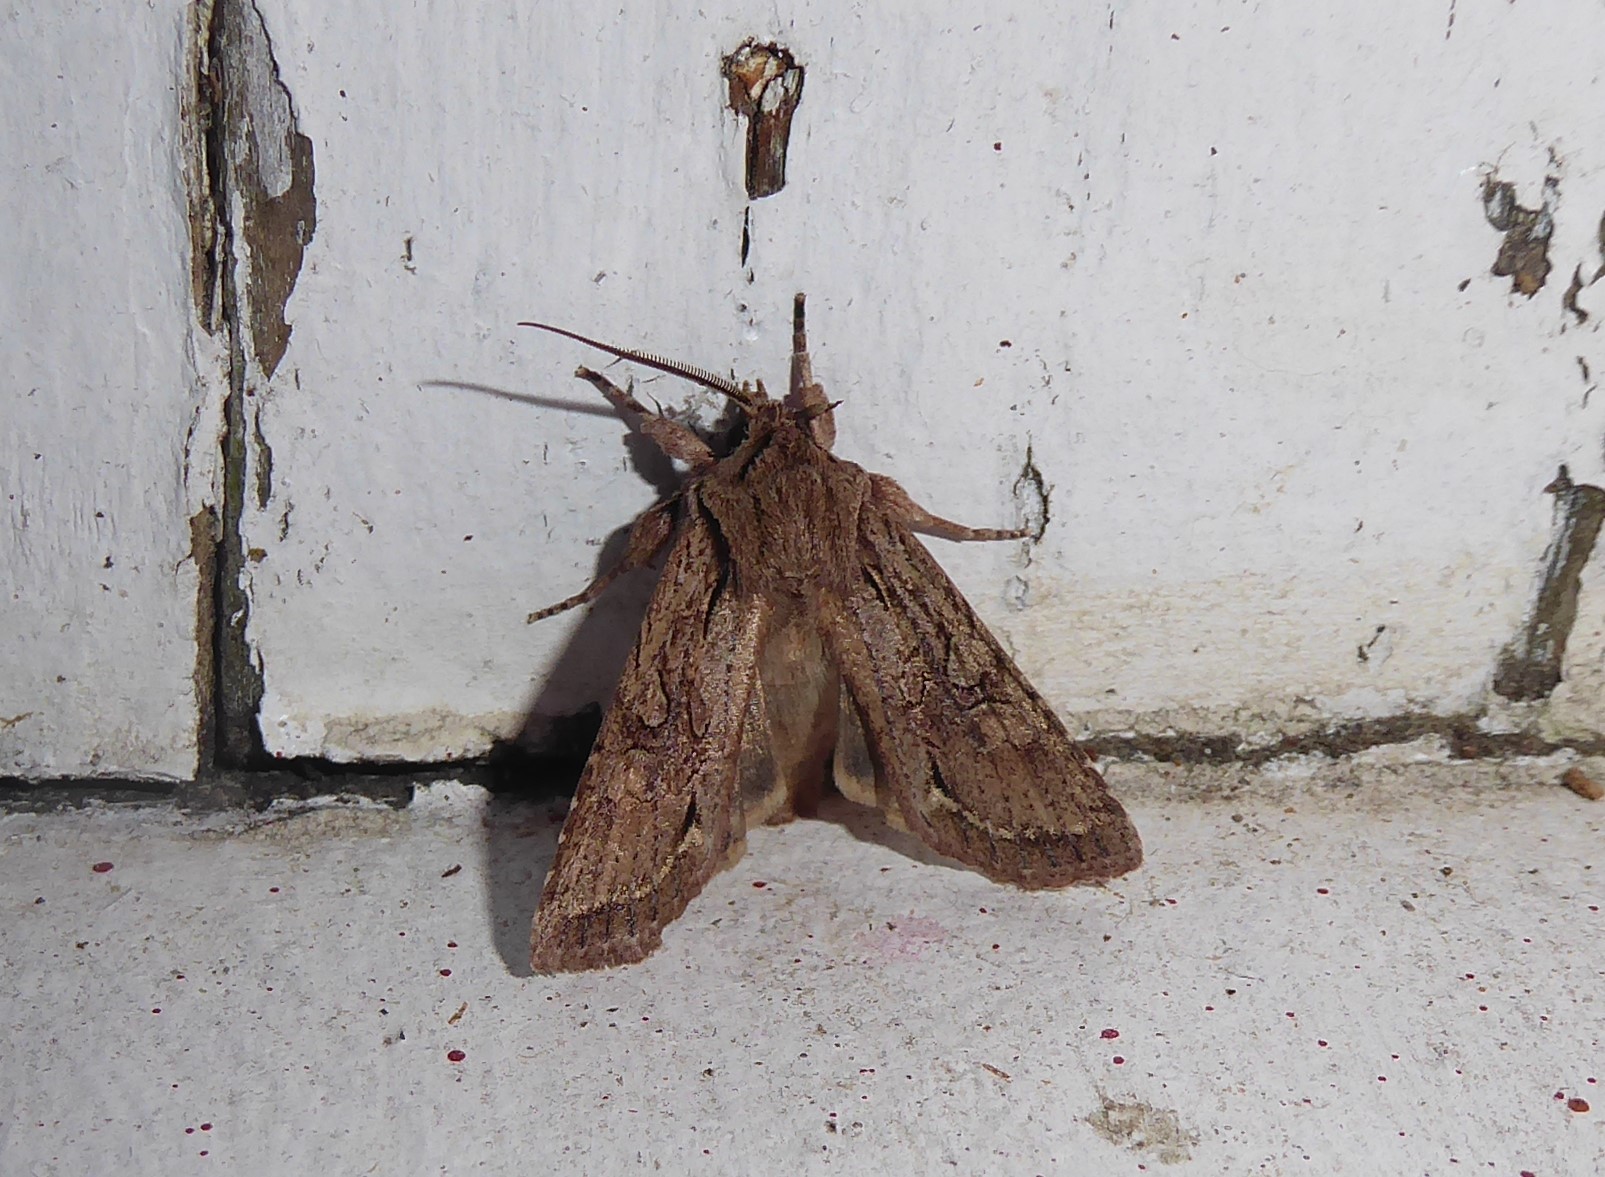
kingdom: Animalia
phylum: Arthropoda
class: Insecta
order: Lepidoptera
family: Noctuidae
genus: Ichneutica
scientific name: Ichneutica
